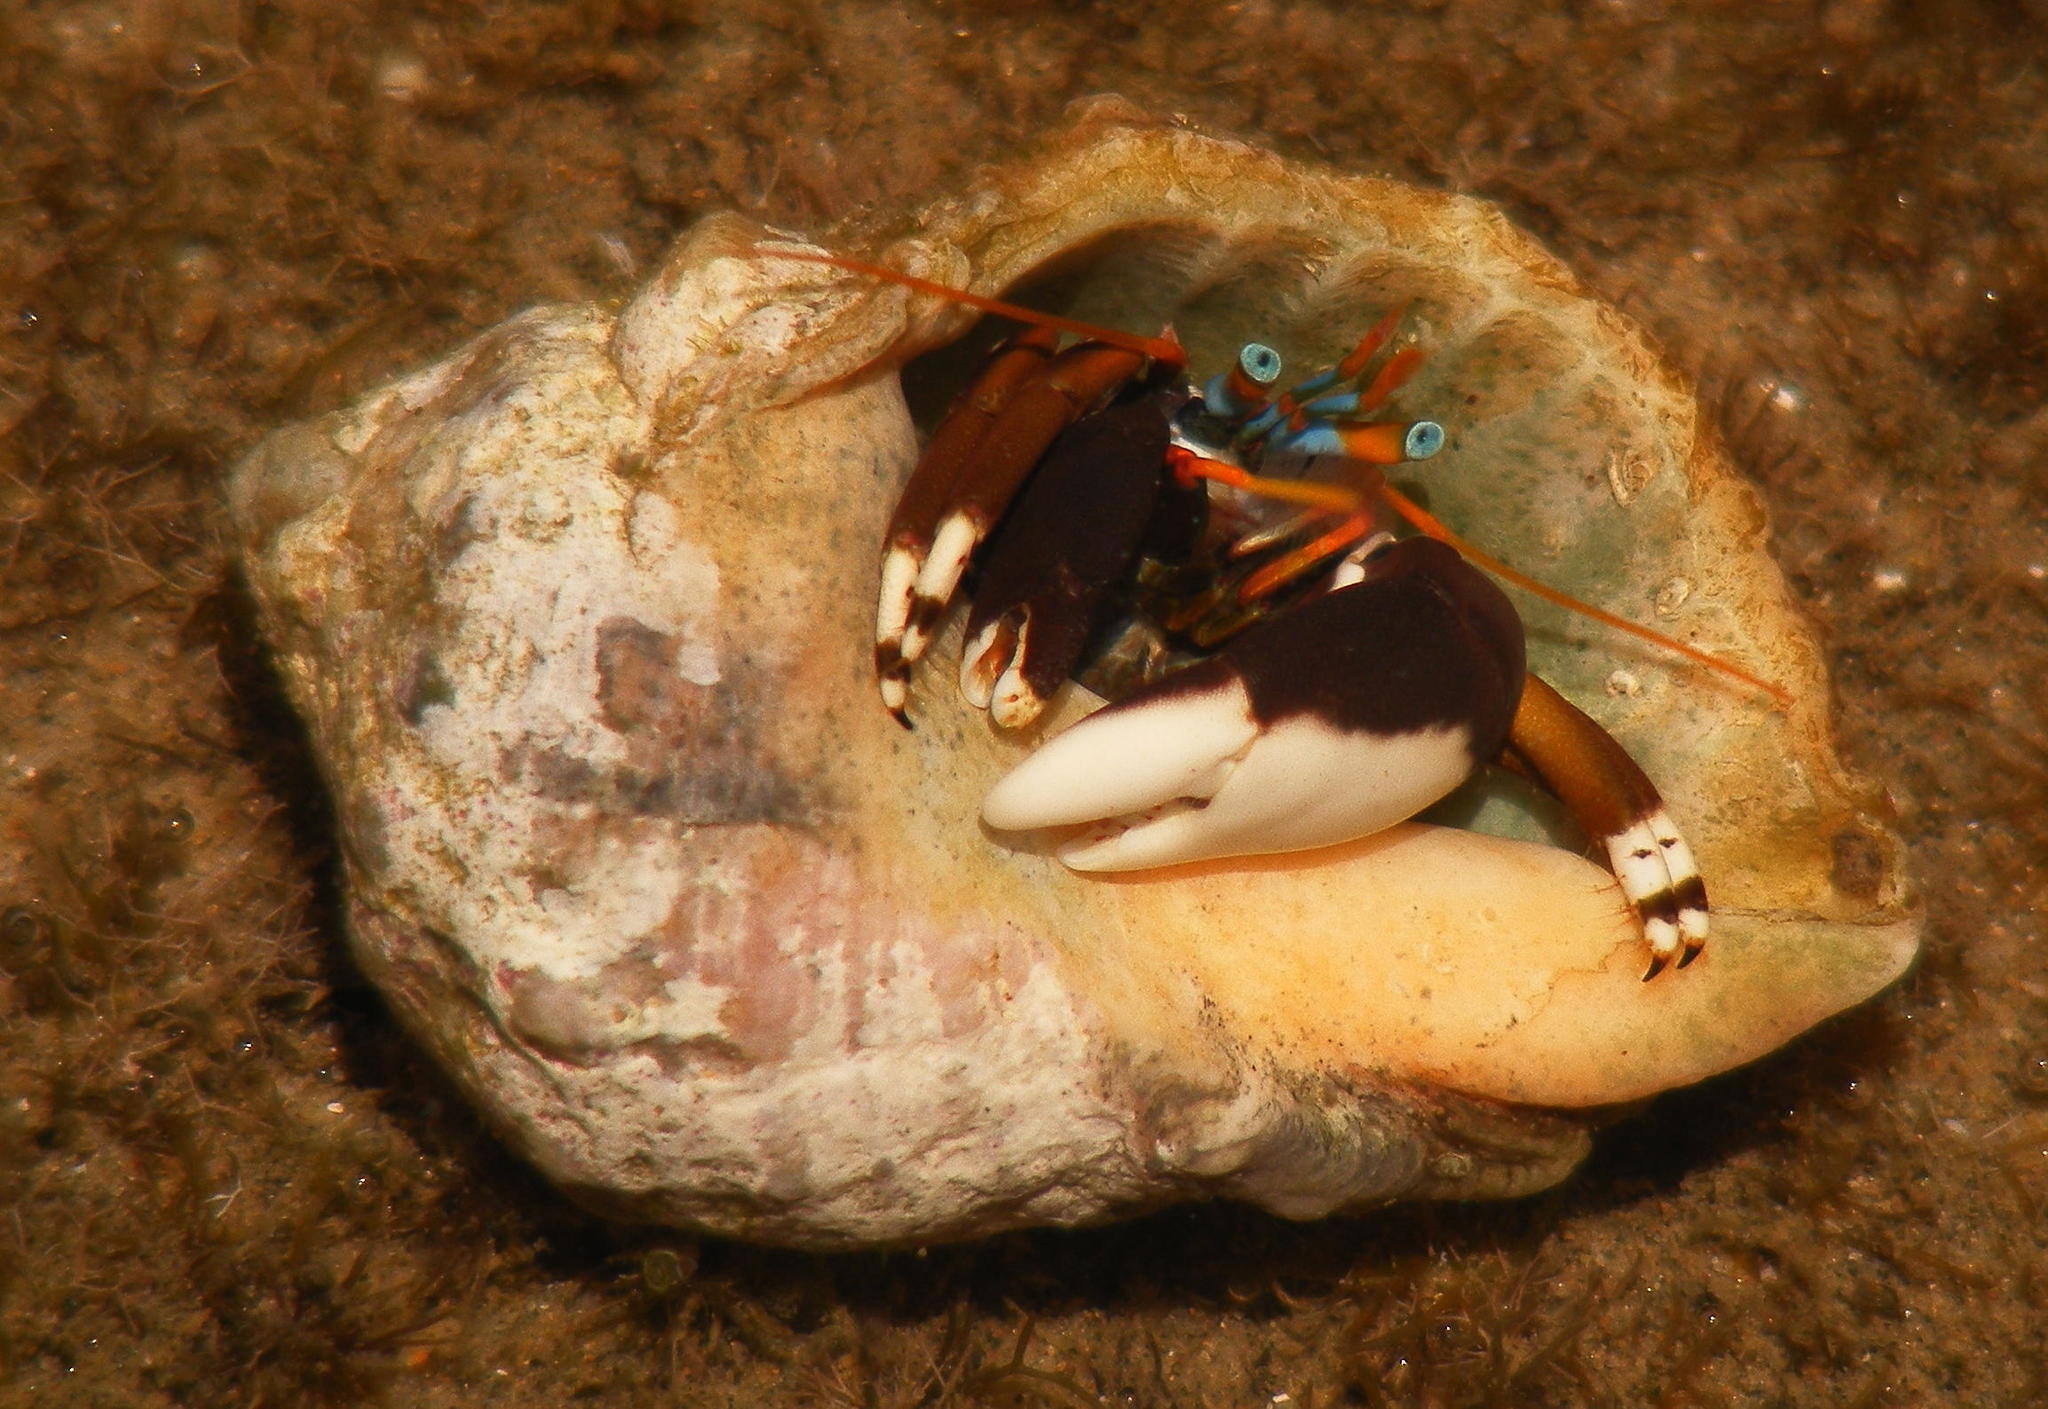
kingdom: Animalia
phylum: Arthropoda
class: Malacostraca
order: Decapoda
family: Diogenidae
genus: Calcinus
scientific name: Calcinus laevimanus
